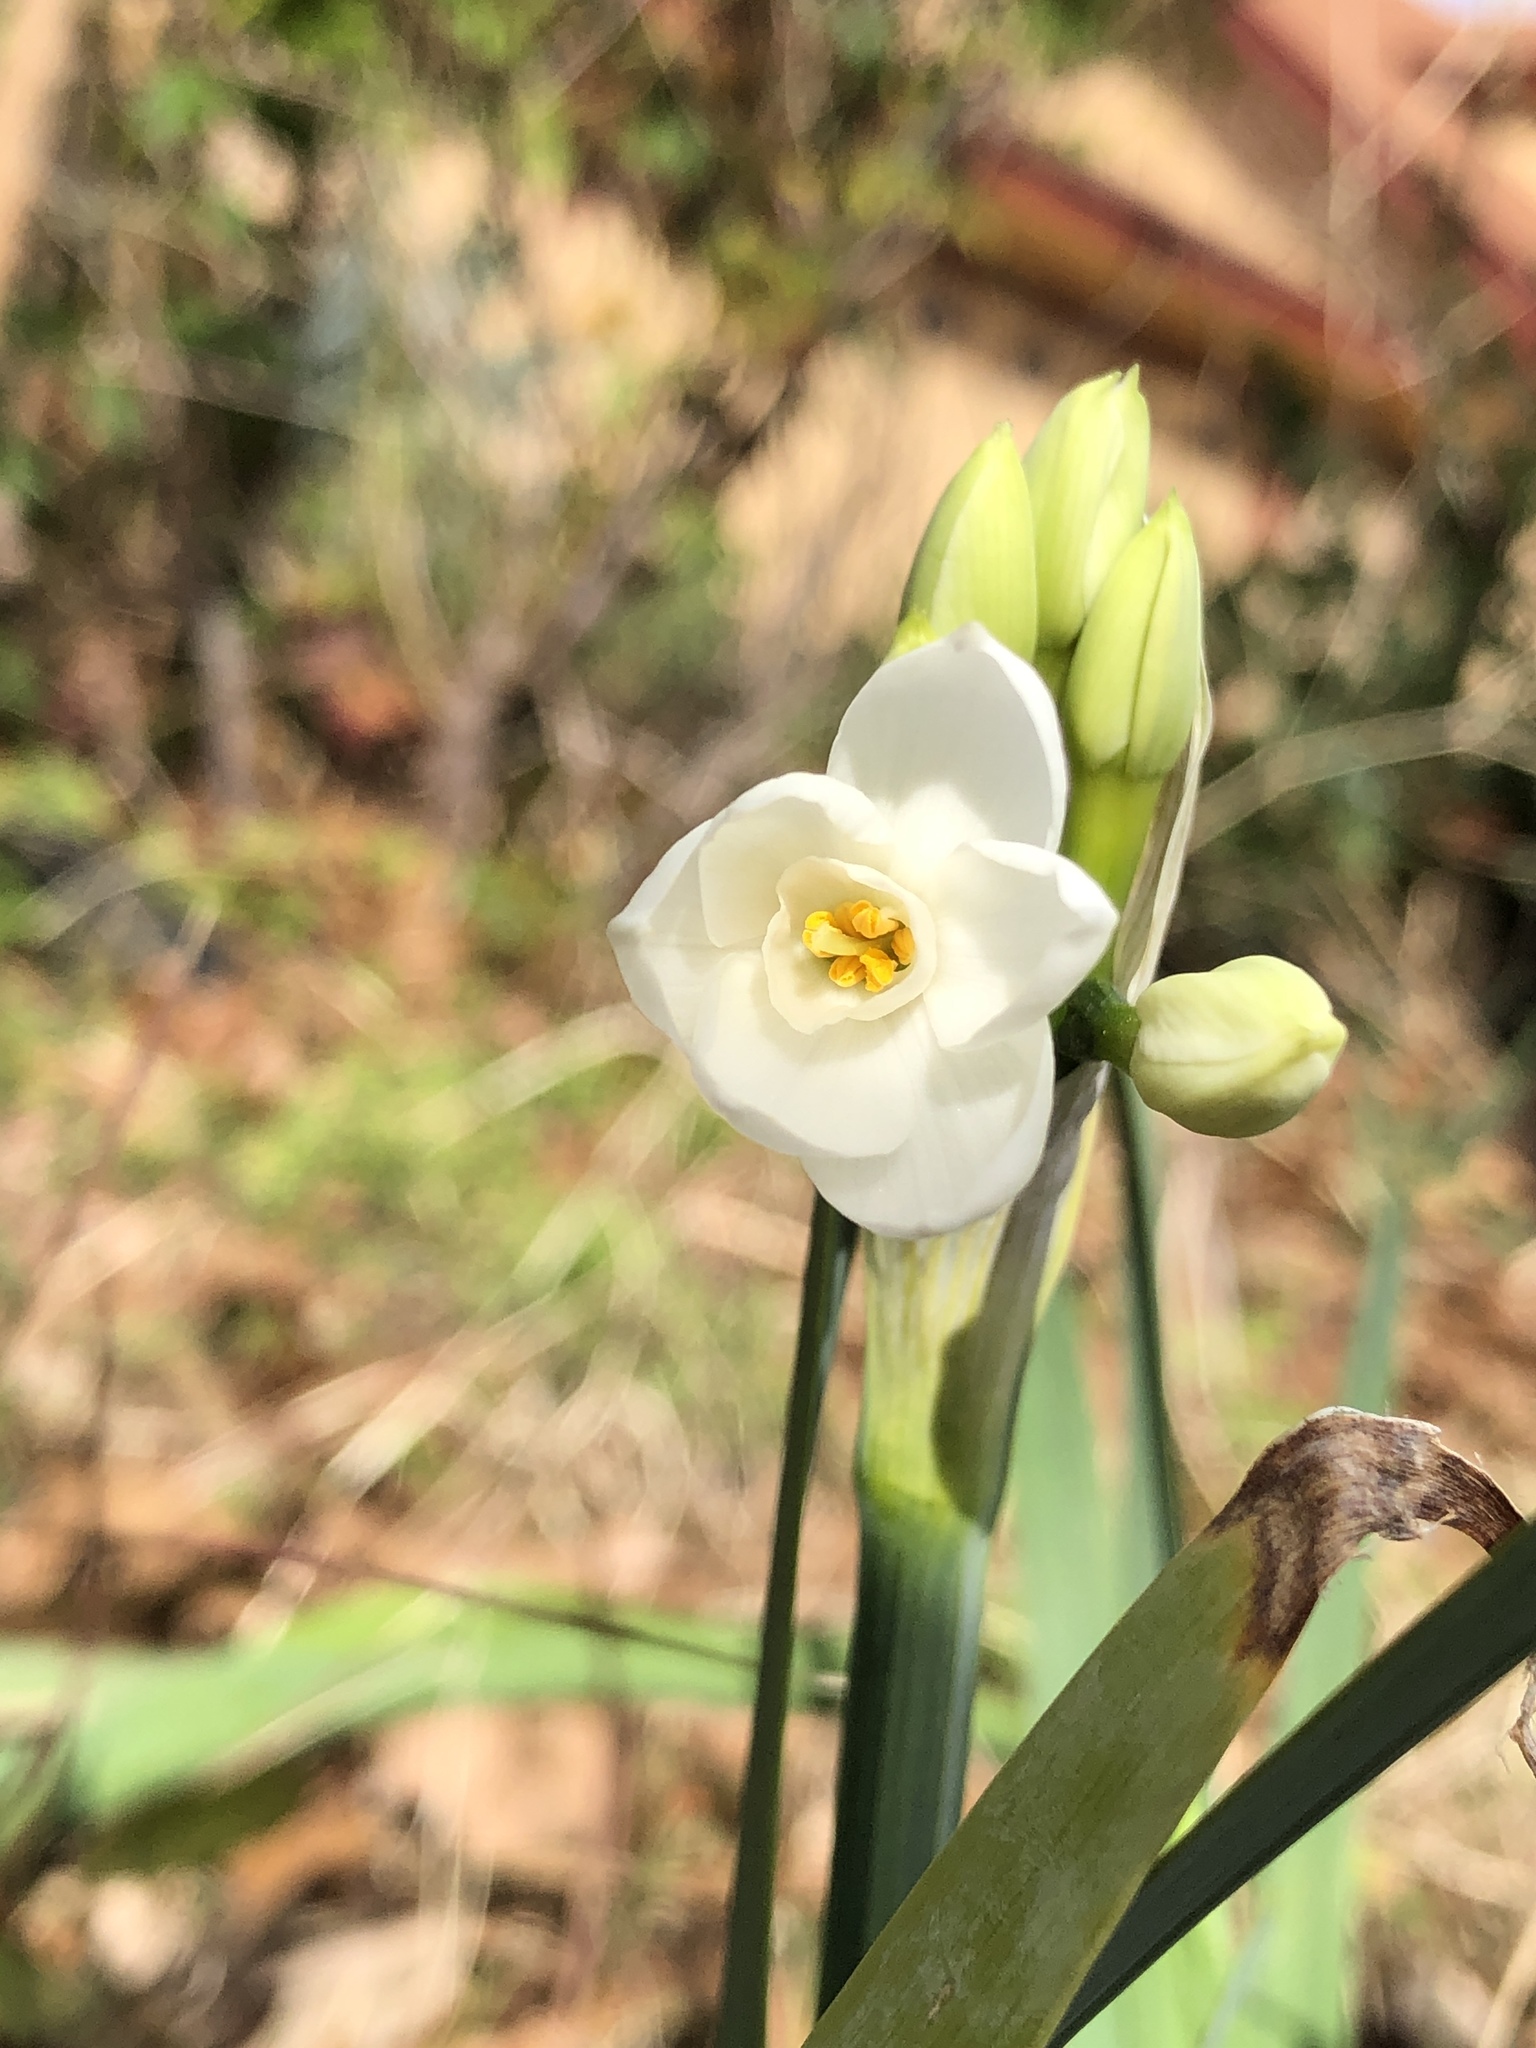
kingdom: Plantae
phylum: Tracheophyta
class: Liliopsida
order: Asparagales
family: Amaryllidaceae
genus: Narcissus
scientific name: Narcissus papyraceus
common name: Paper-white daffodil
